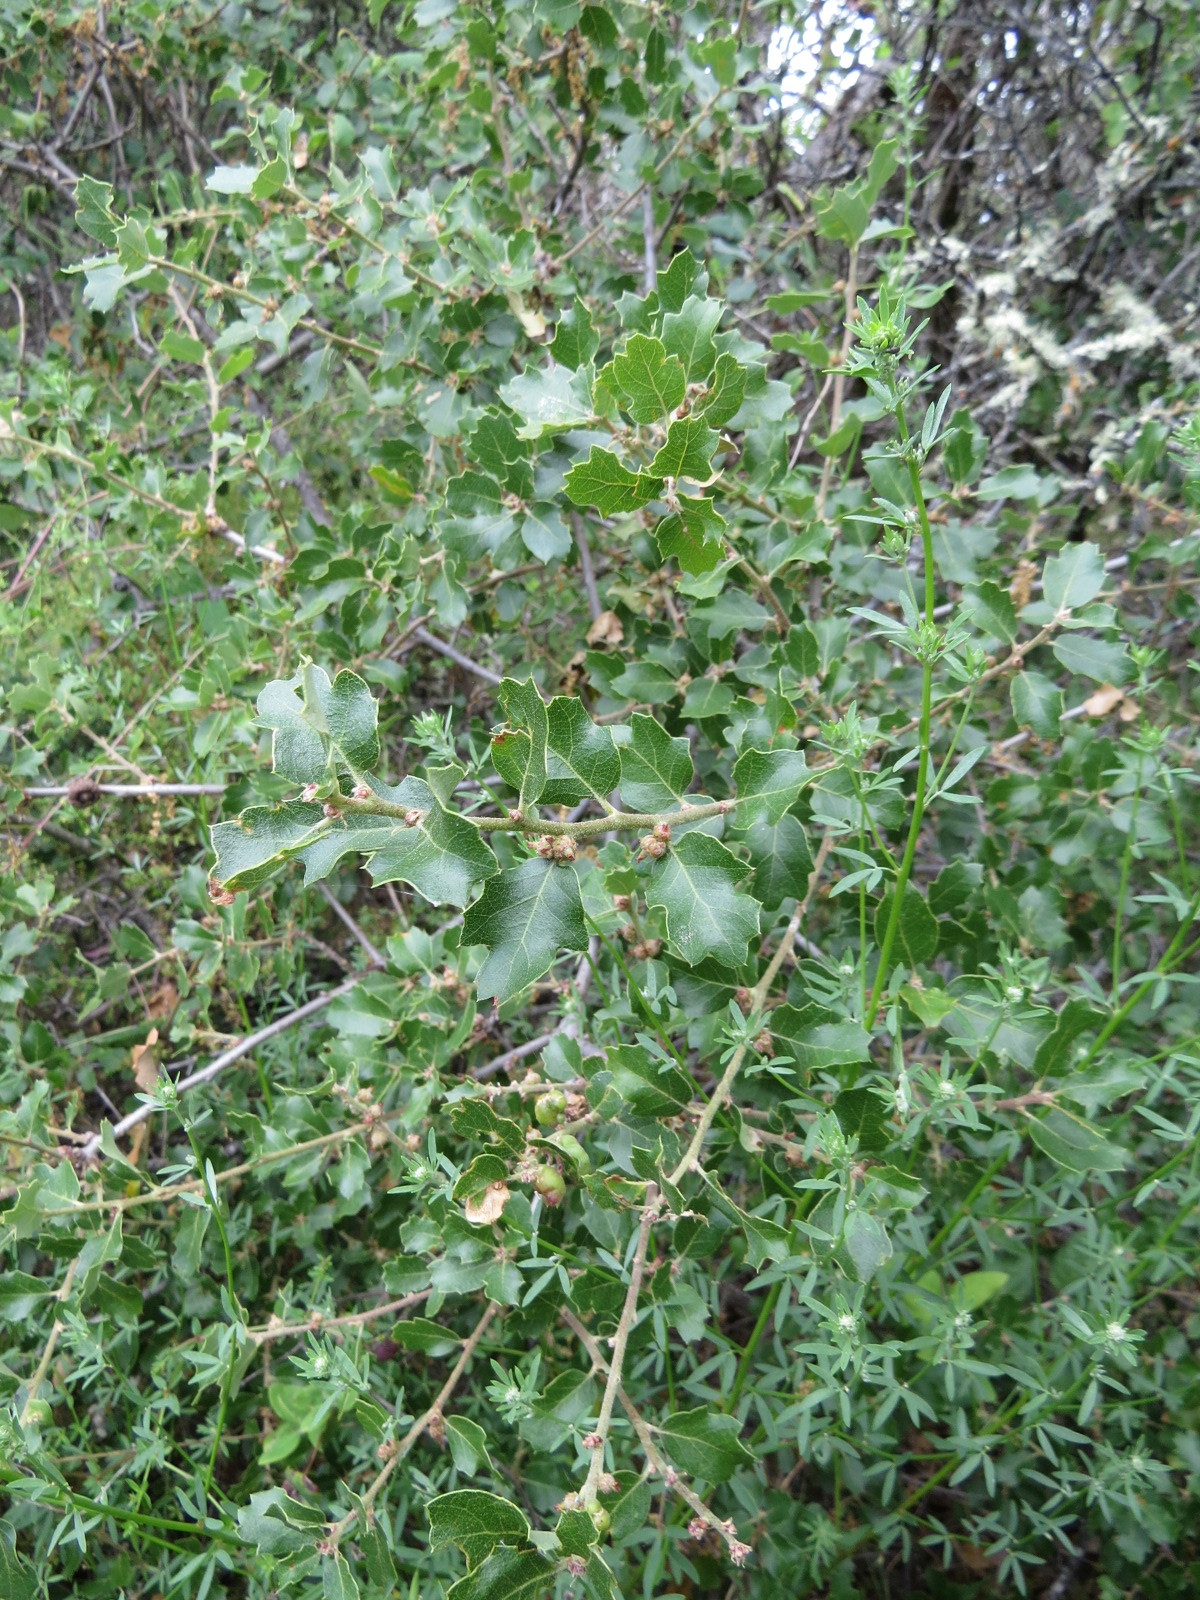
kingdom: Animalia
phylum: Arthropoda
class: Insecta
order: Hymenoptera
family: Cynipidae
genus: Neuroterus
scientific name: Neuroterus
